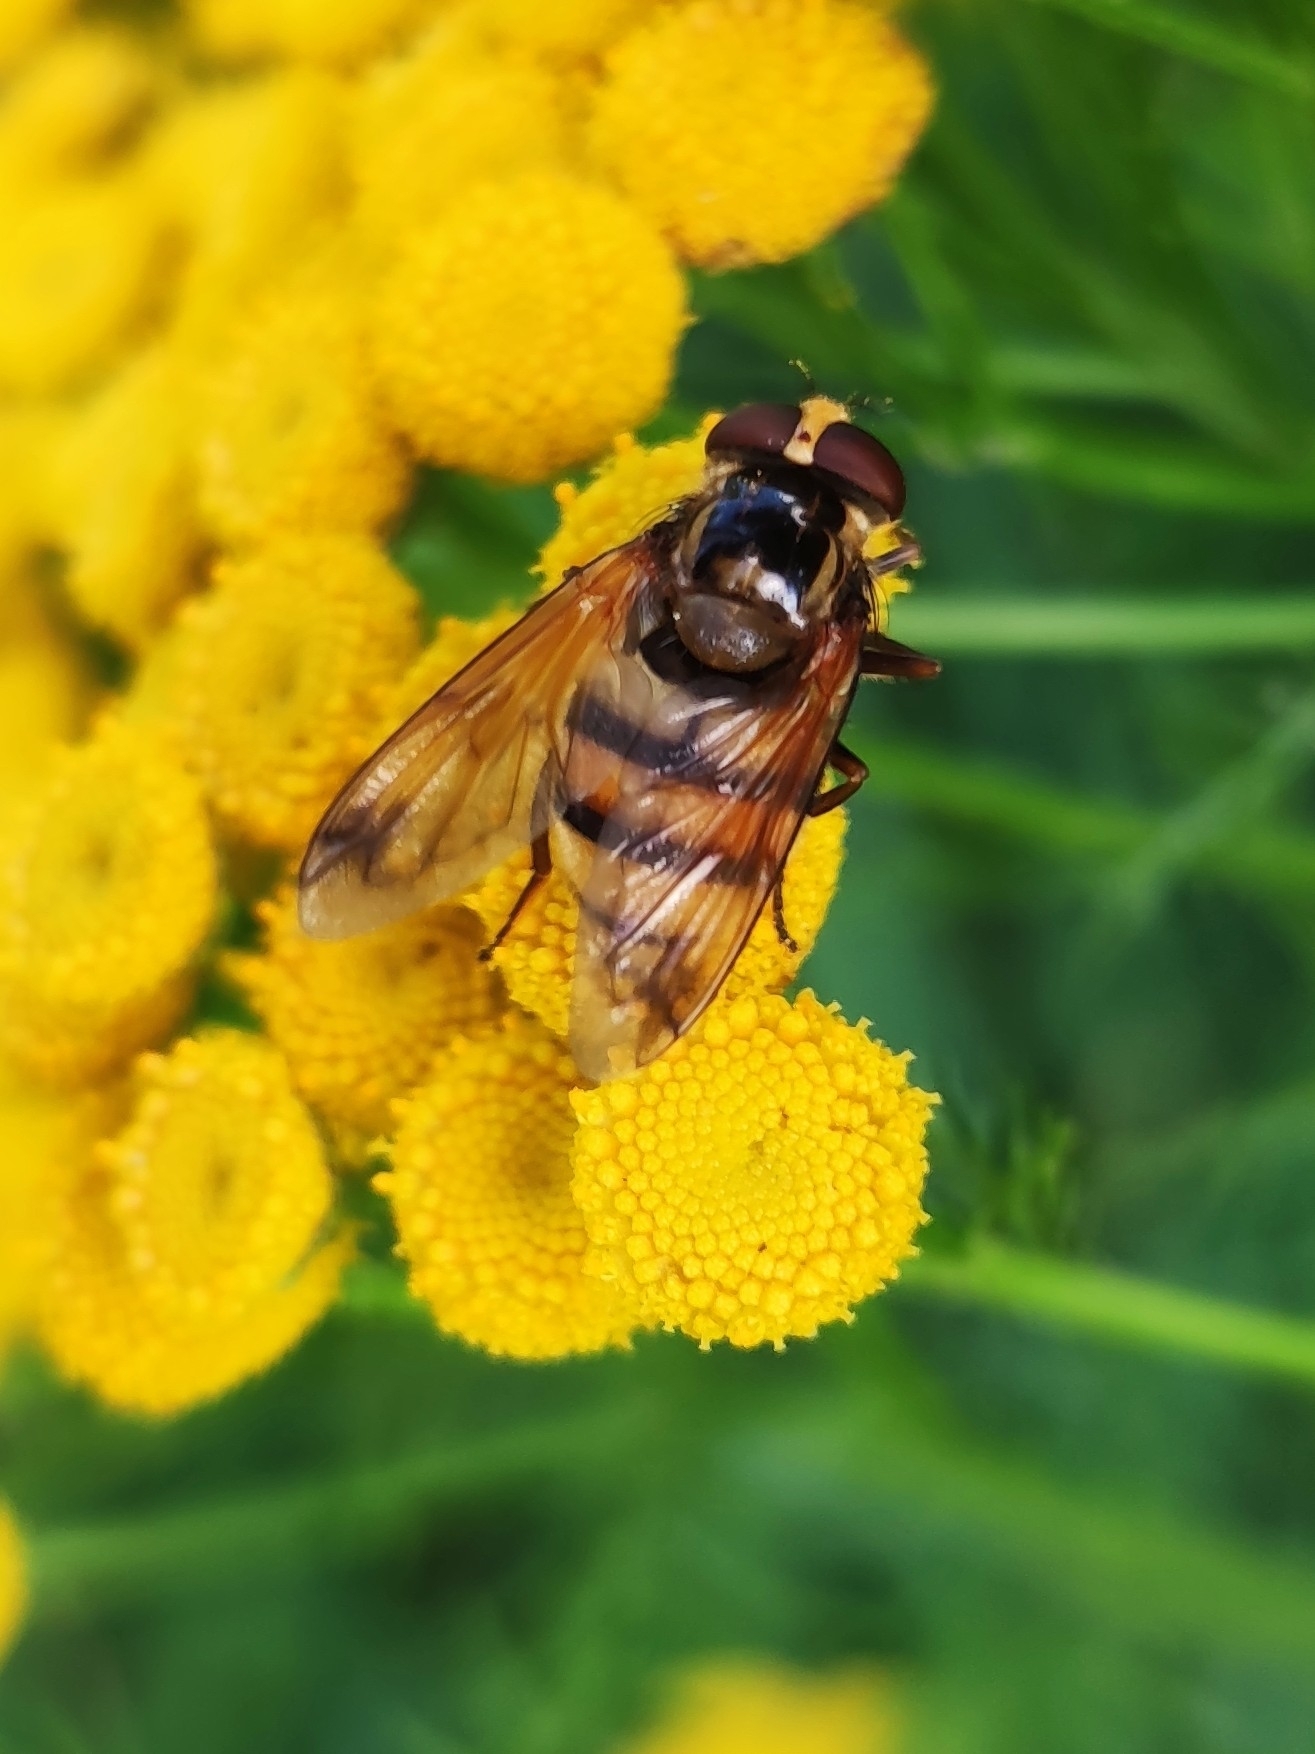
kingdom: Animalia
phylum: Arthropoda
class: Insecta
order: Diptera
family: Syrphidae
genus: Volucella
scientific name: Volucella inanis
